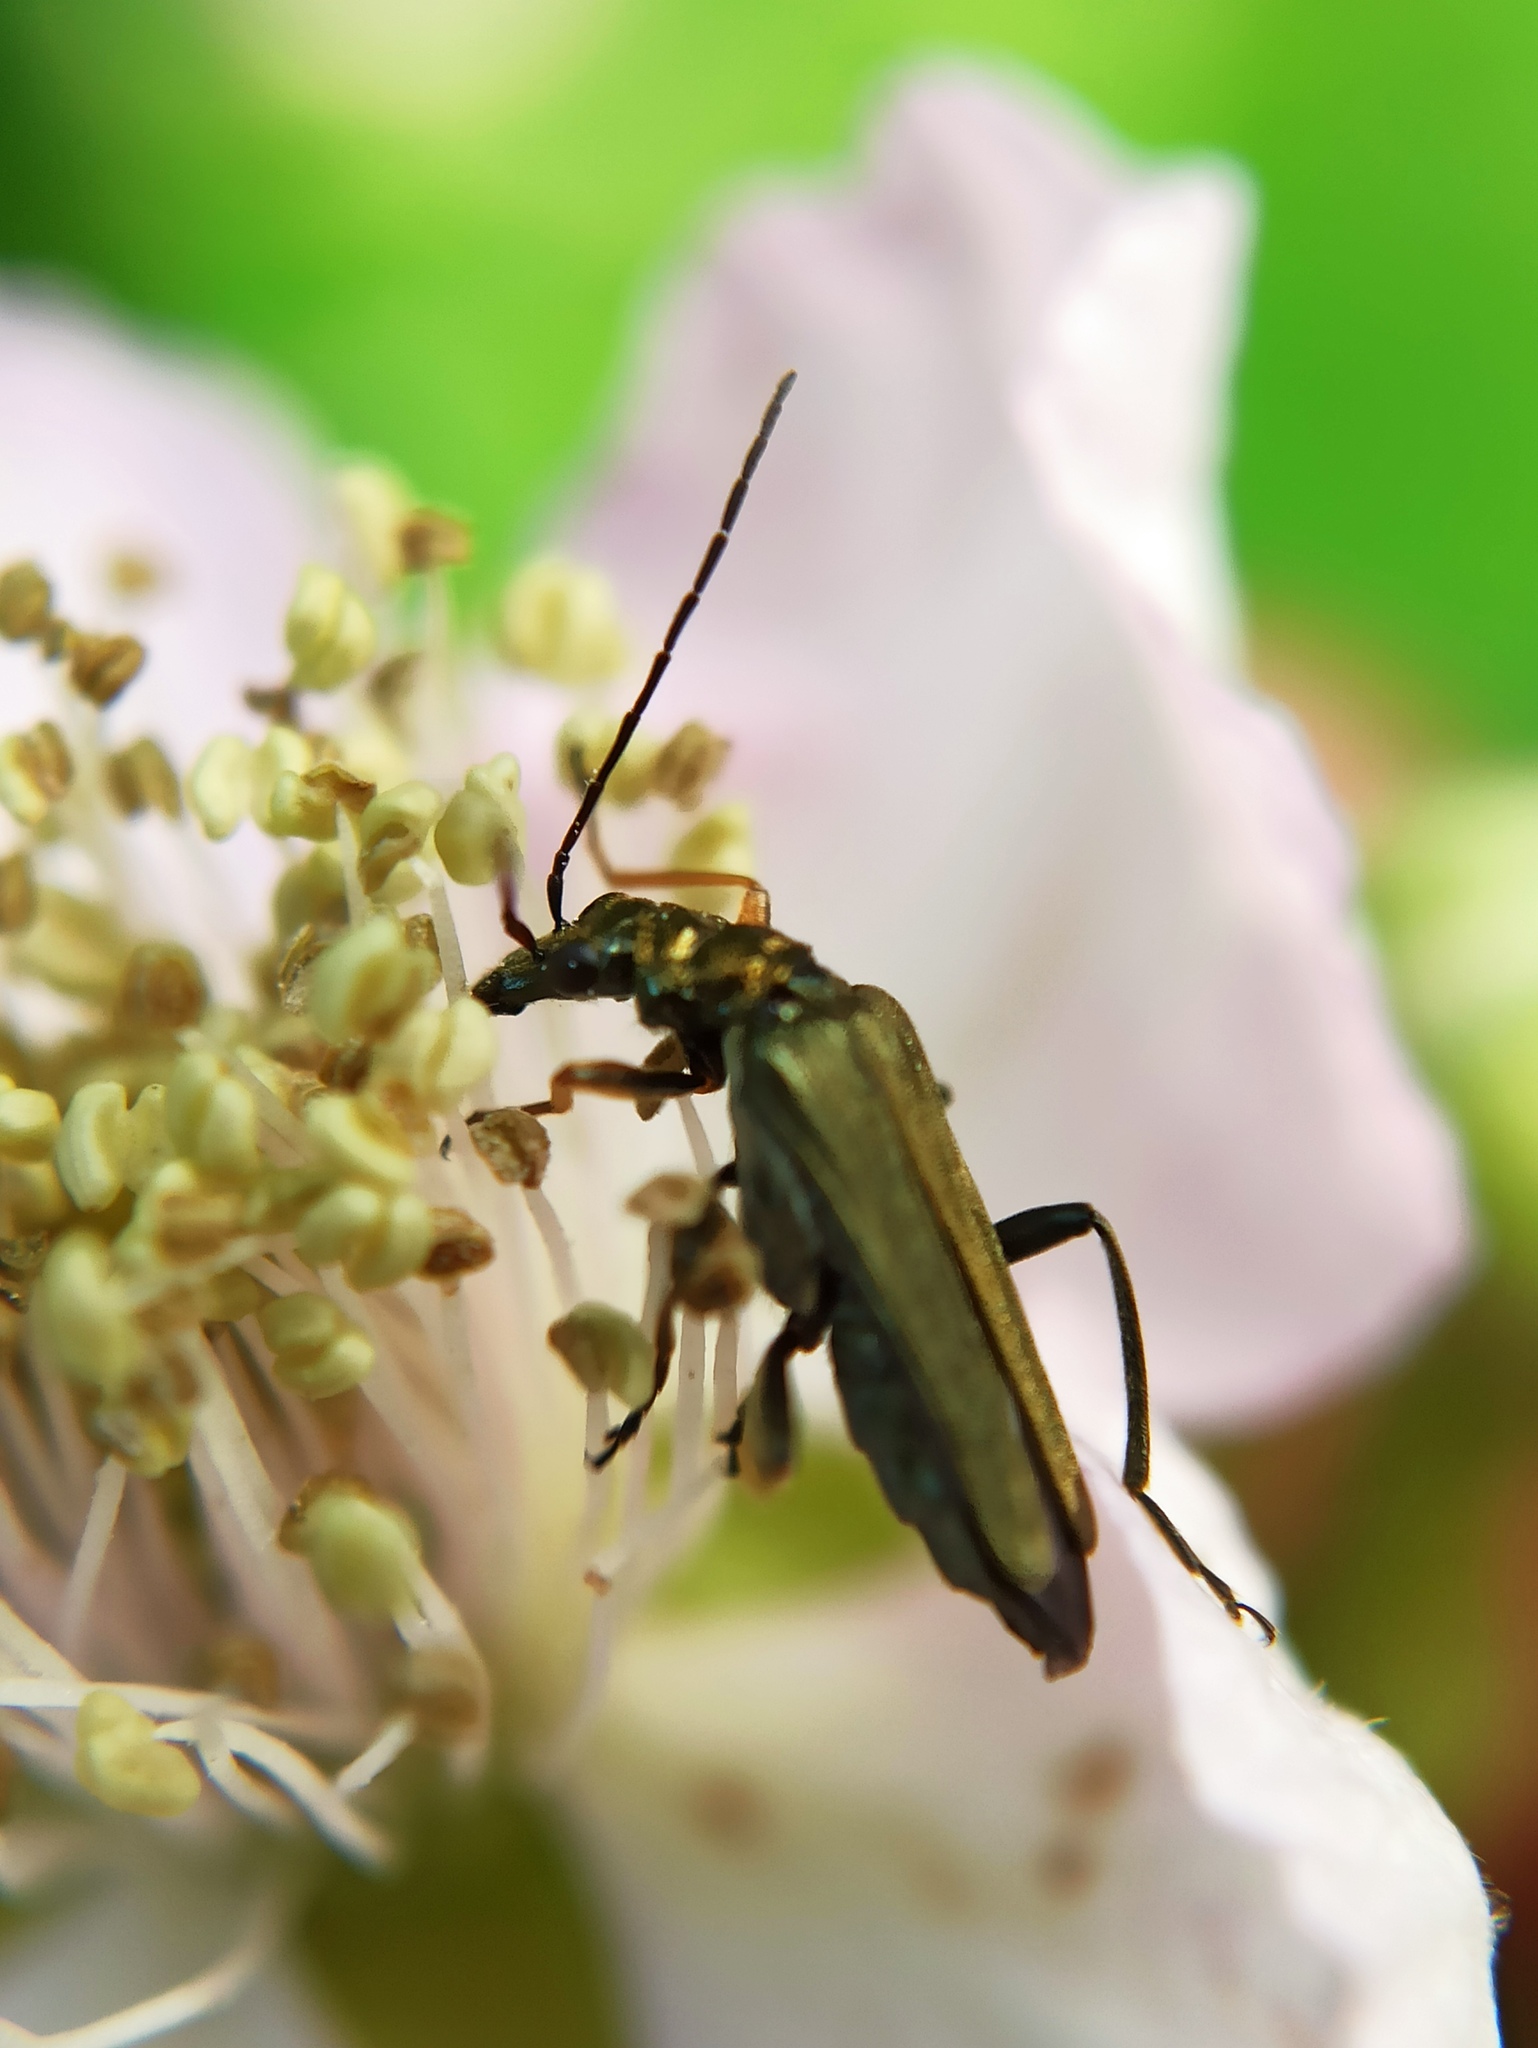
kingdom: Animalia
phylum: Arthropoda
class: Insecta
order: Coleoptera
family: Oedemeridae
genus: Oedemera
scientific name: Oedemera flavipes
